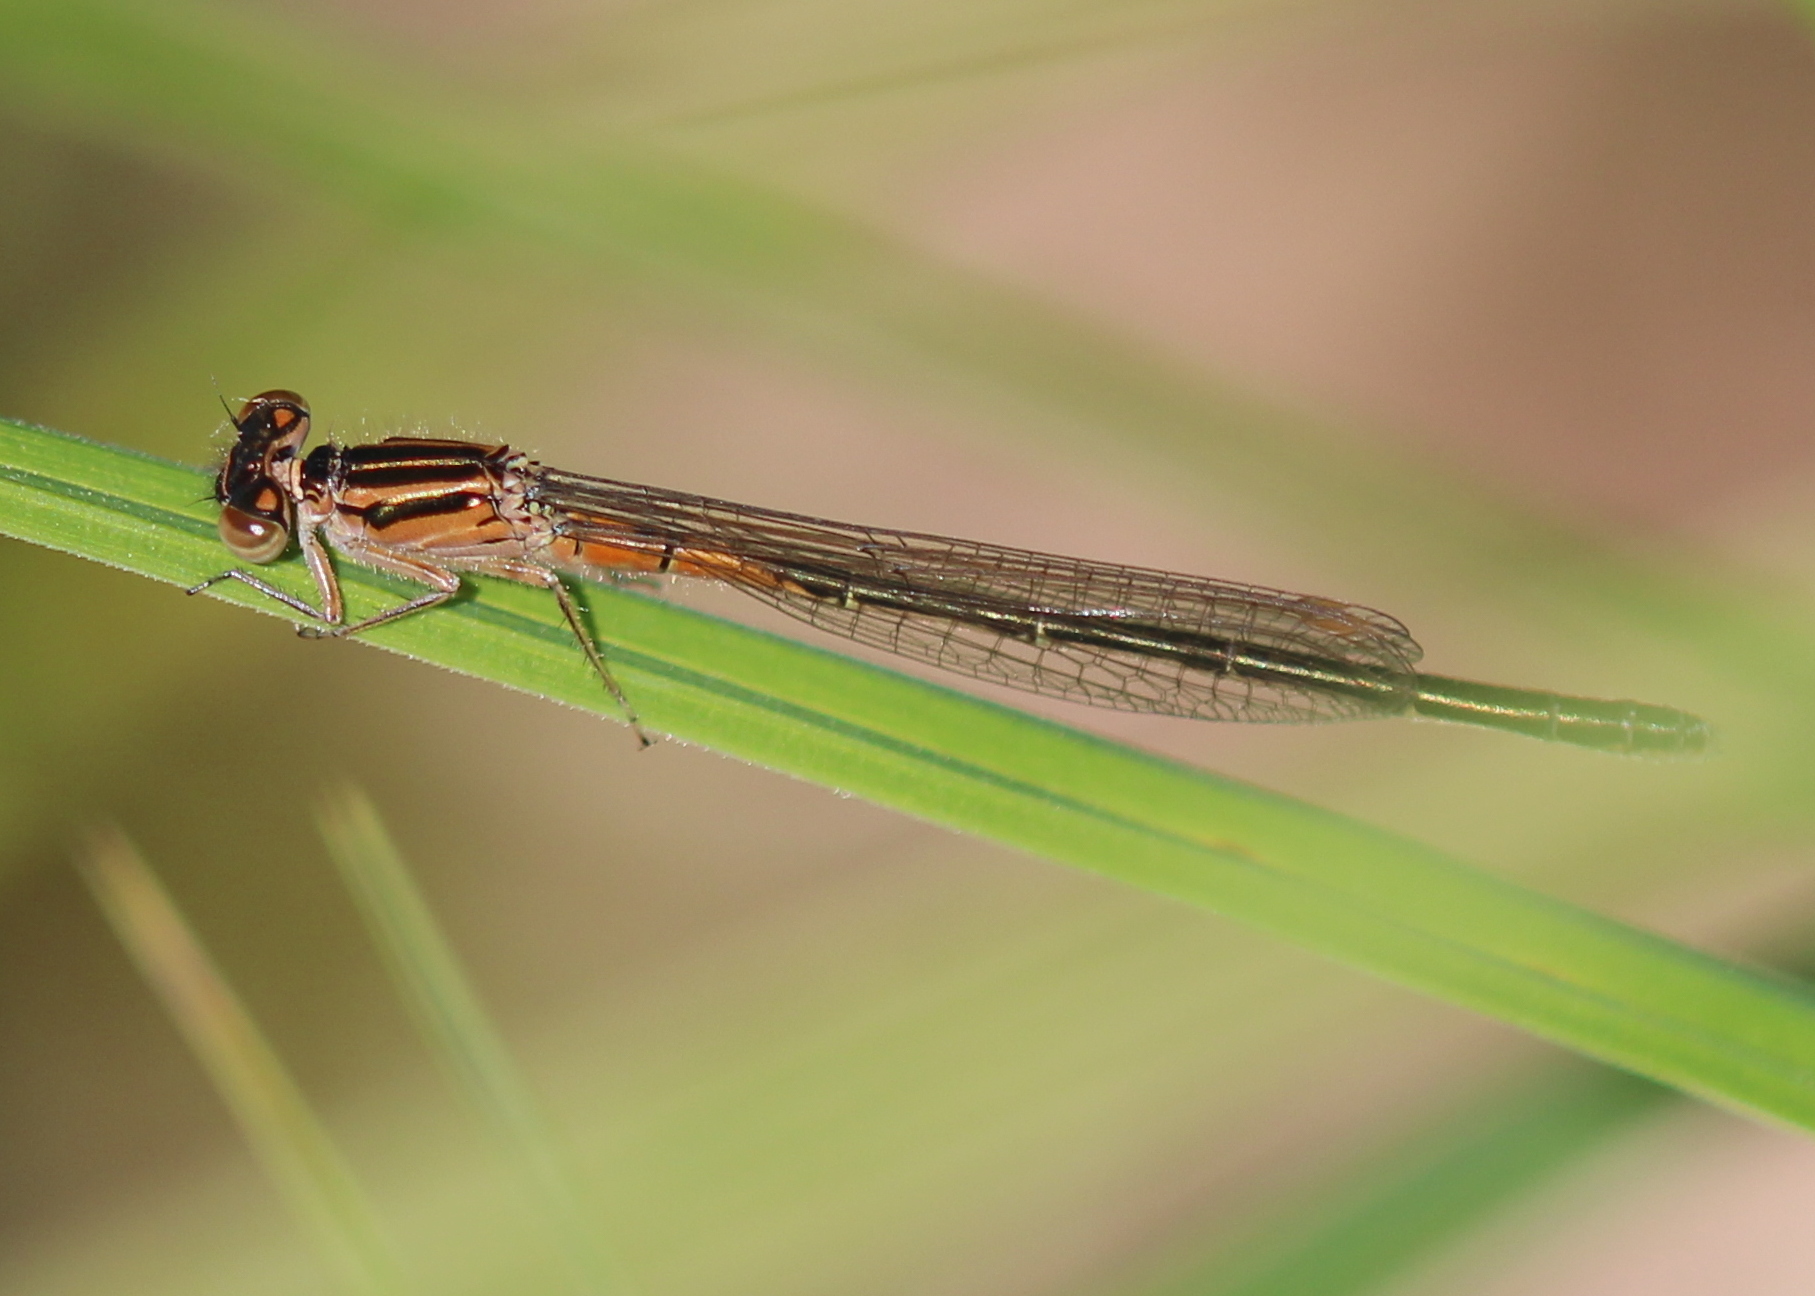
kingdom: Animalia
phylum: Arthropoda
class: Insecta
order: Odonata
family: Coenagrionidae
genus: Ischnura
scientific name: Ischnura verticalis
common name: Eastern forktail
